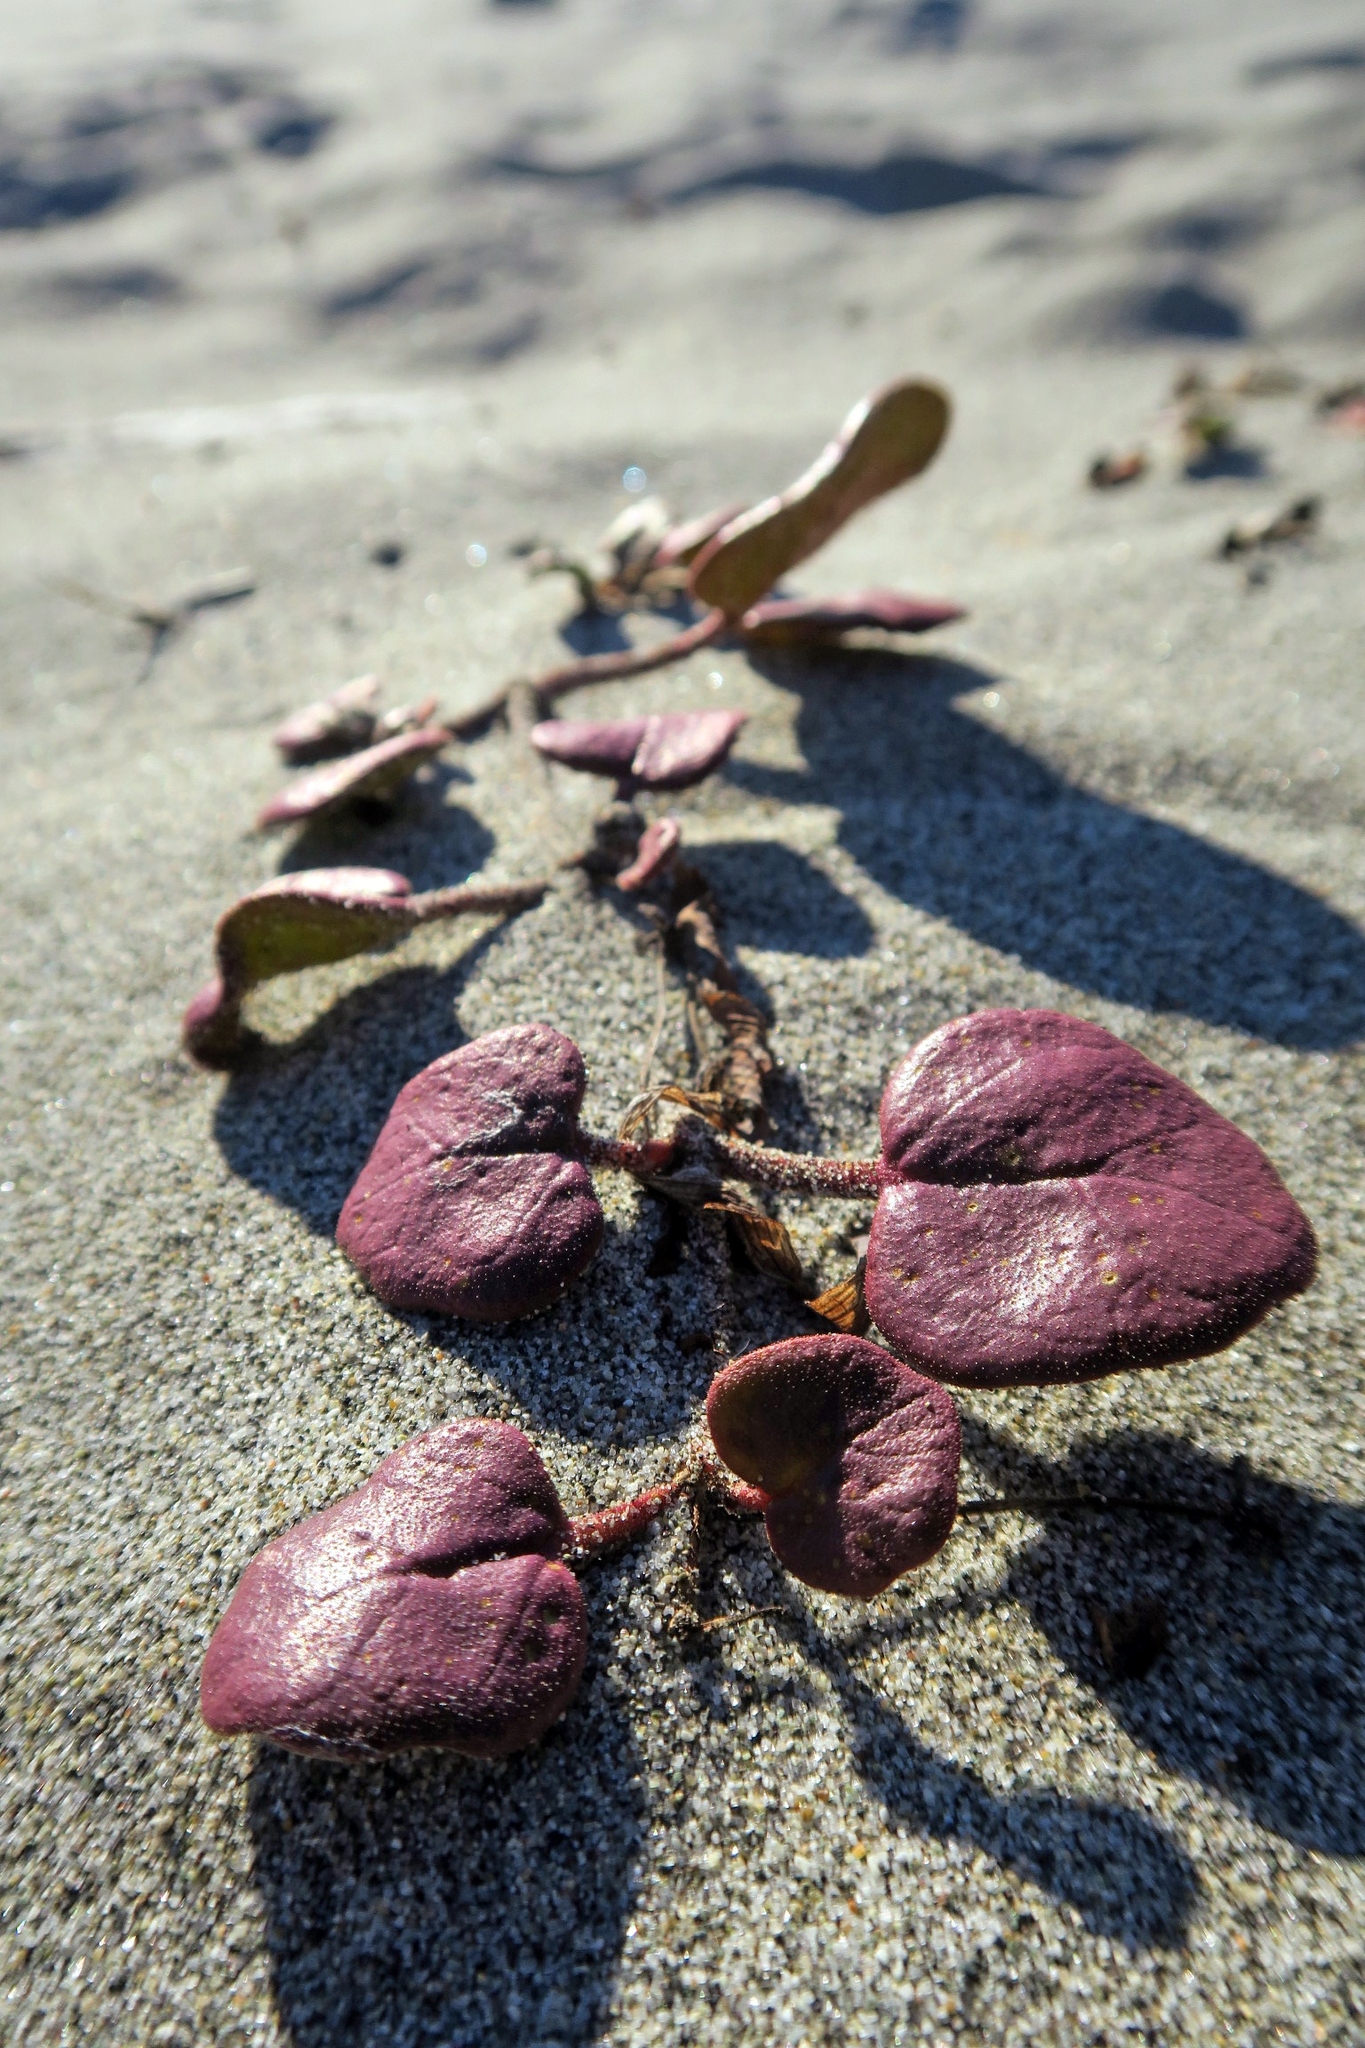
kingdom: Plantae
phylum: Tracheophyta
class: Magnoliopsida
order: Caryophyllales
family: Nyctaginaceae
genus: Abronia
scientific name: Abronia latifolia
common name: Yellow sand-verbena
